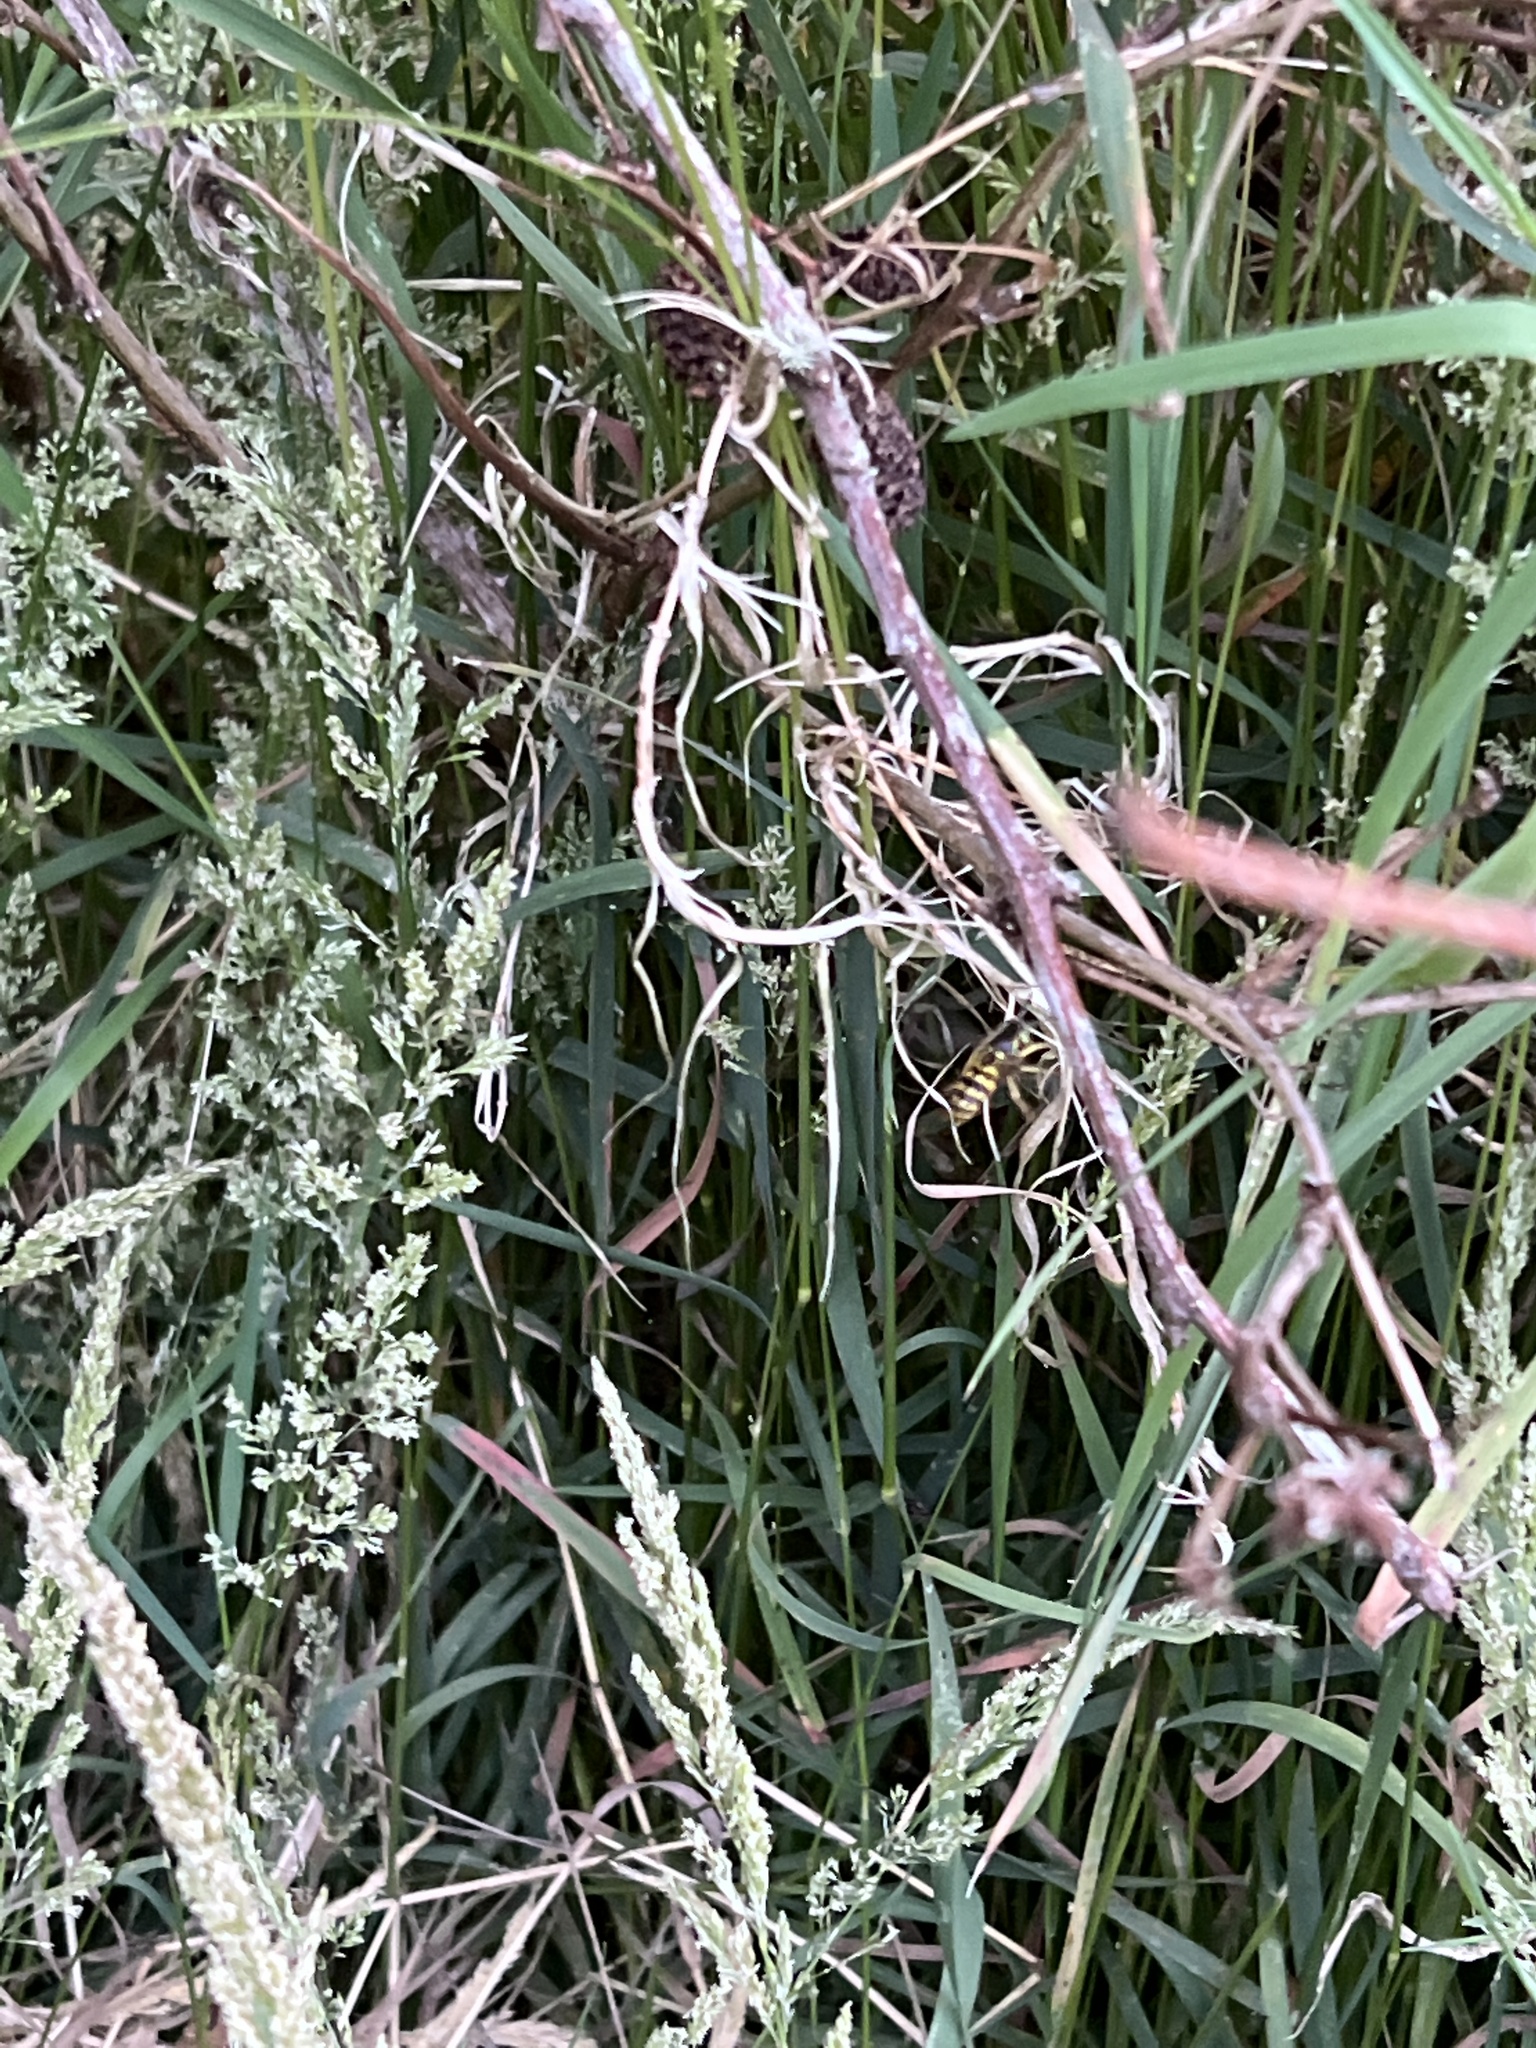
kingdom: Animalia
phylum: Arthropoda
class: Insecta
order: Hymenoptera
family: Vespidae
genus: Vespula
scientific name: Vespula alascensis
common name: Alaska yellowjacket
